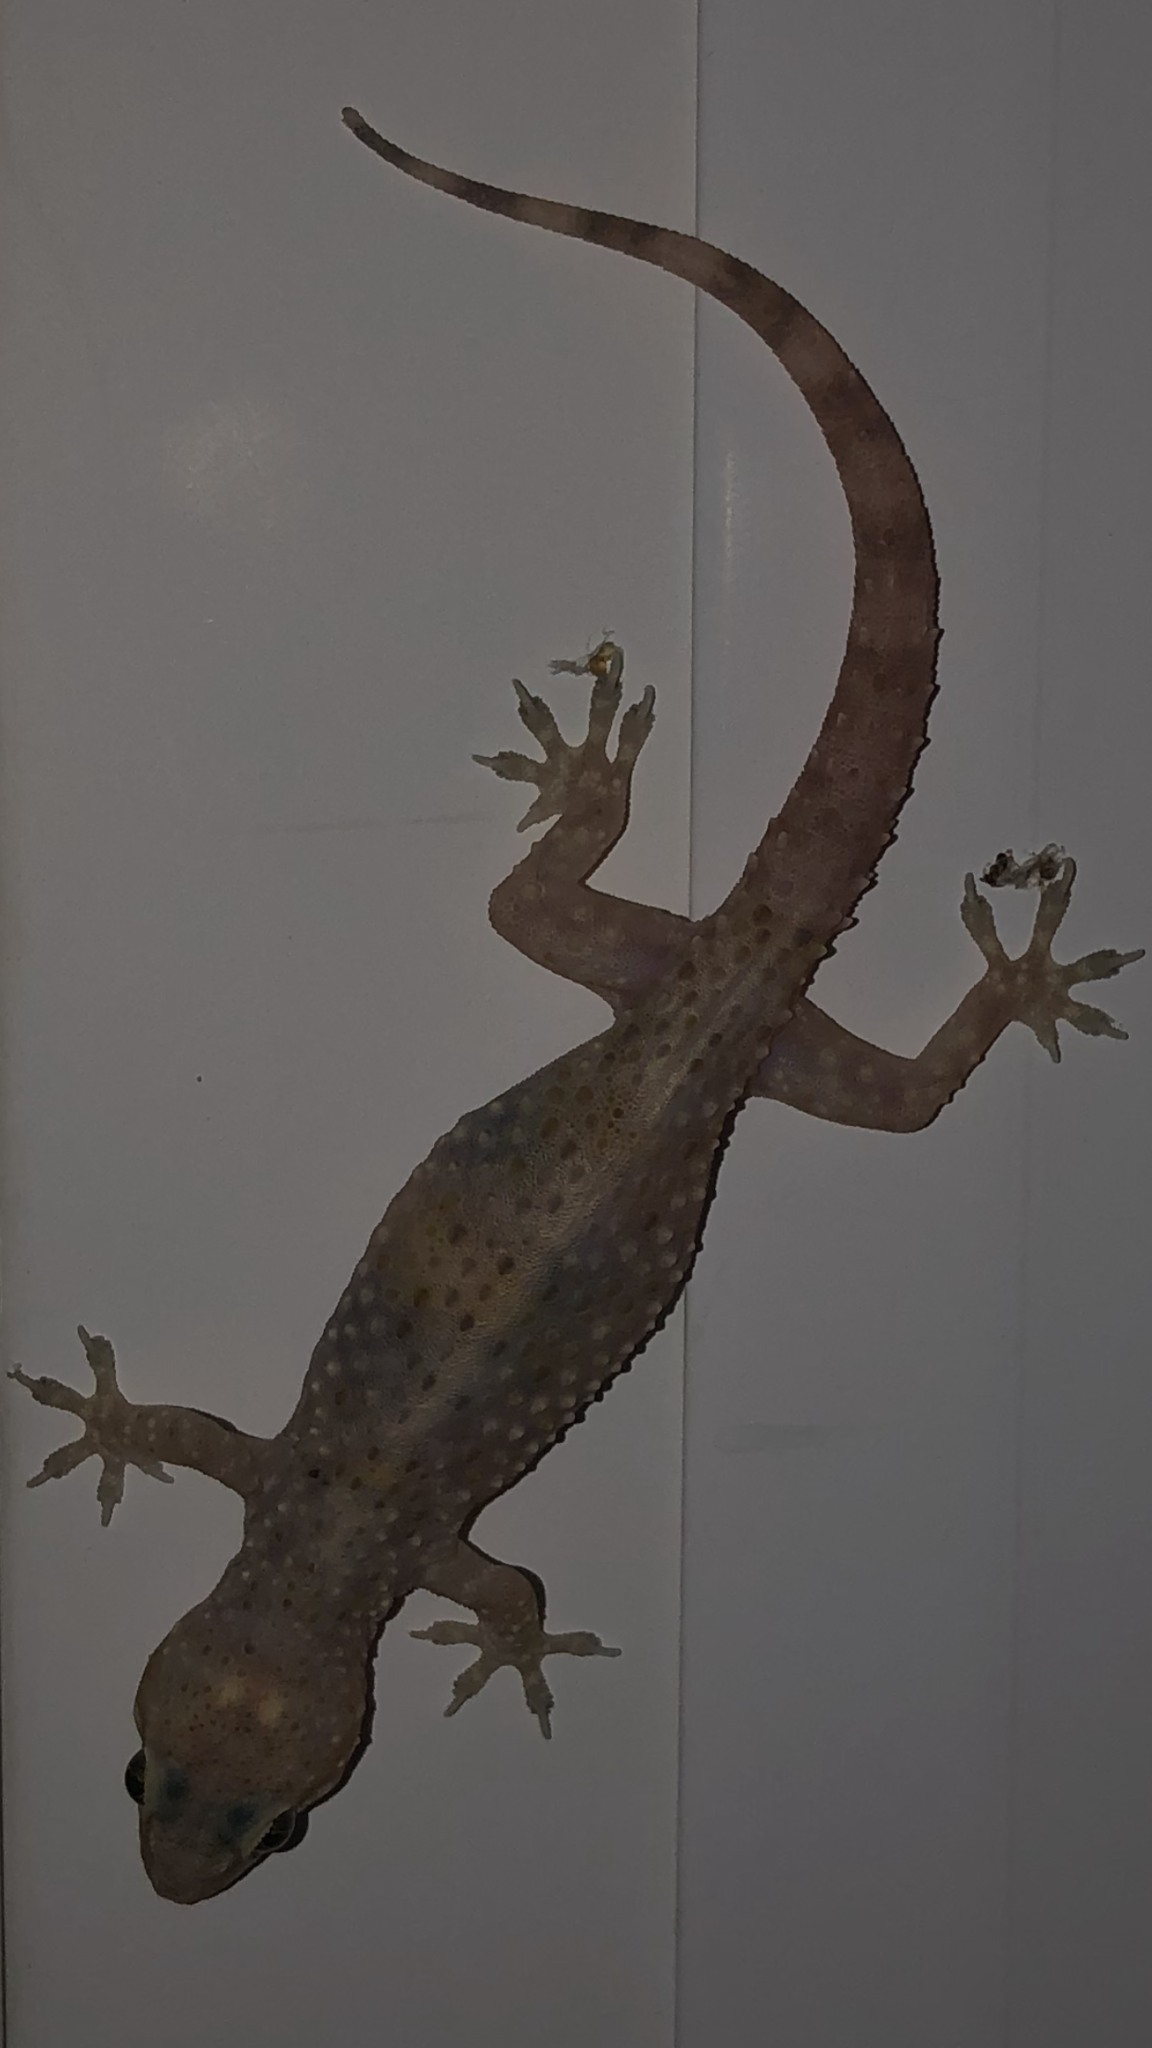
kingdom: Animalia
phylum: Chordata
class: Squamata
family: Gekkonidae
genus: Hemidactylus
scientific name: Hemidactylus turcicus
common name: Turkish gecko
